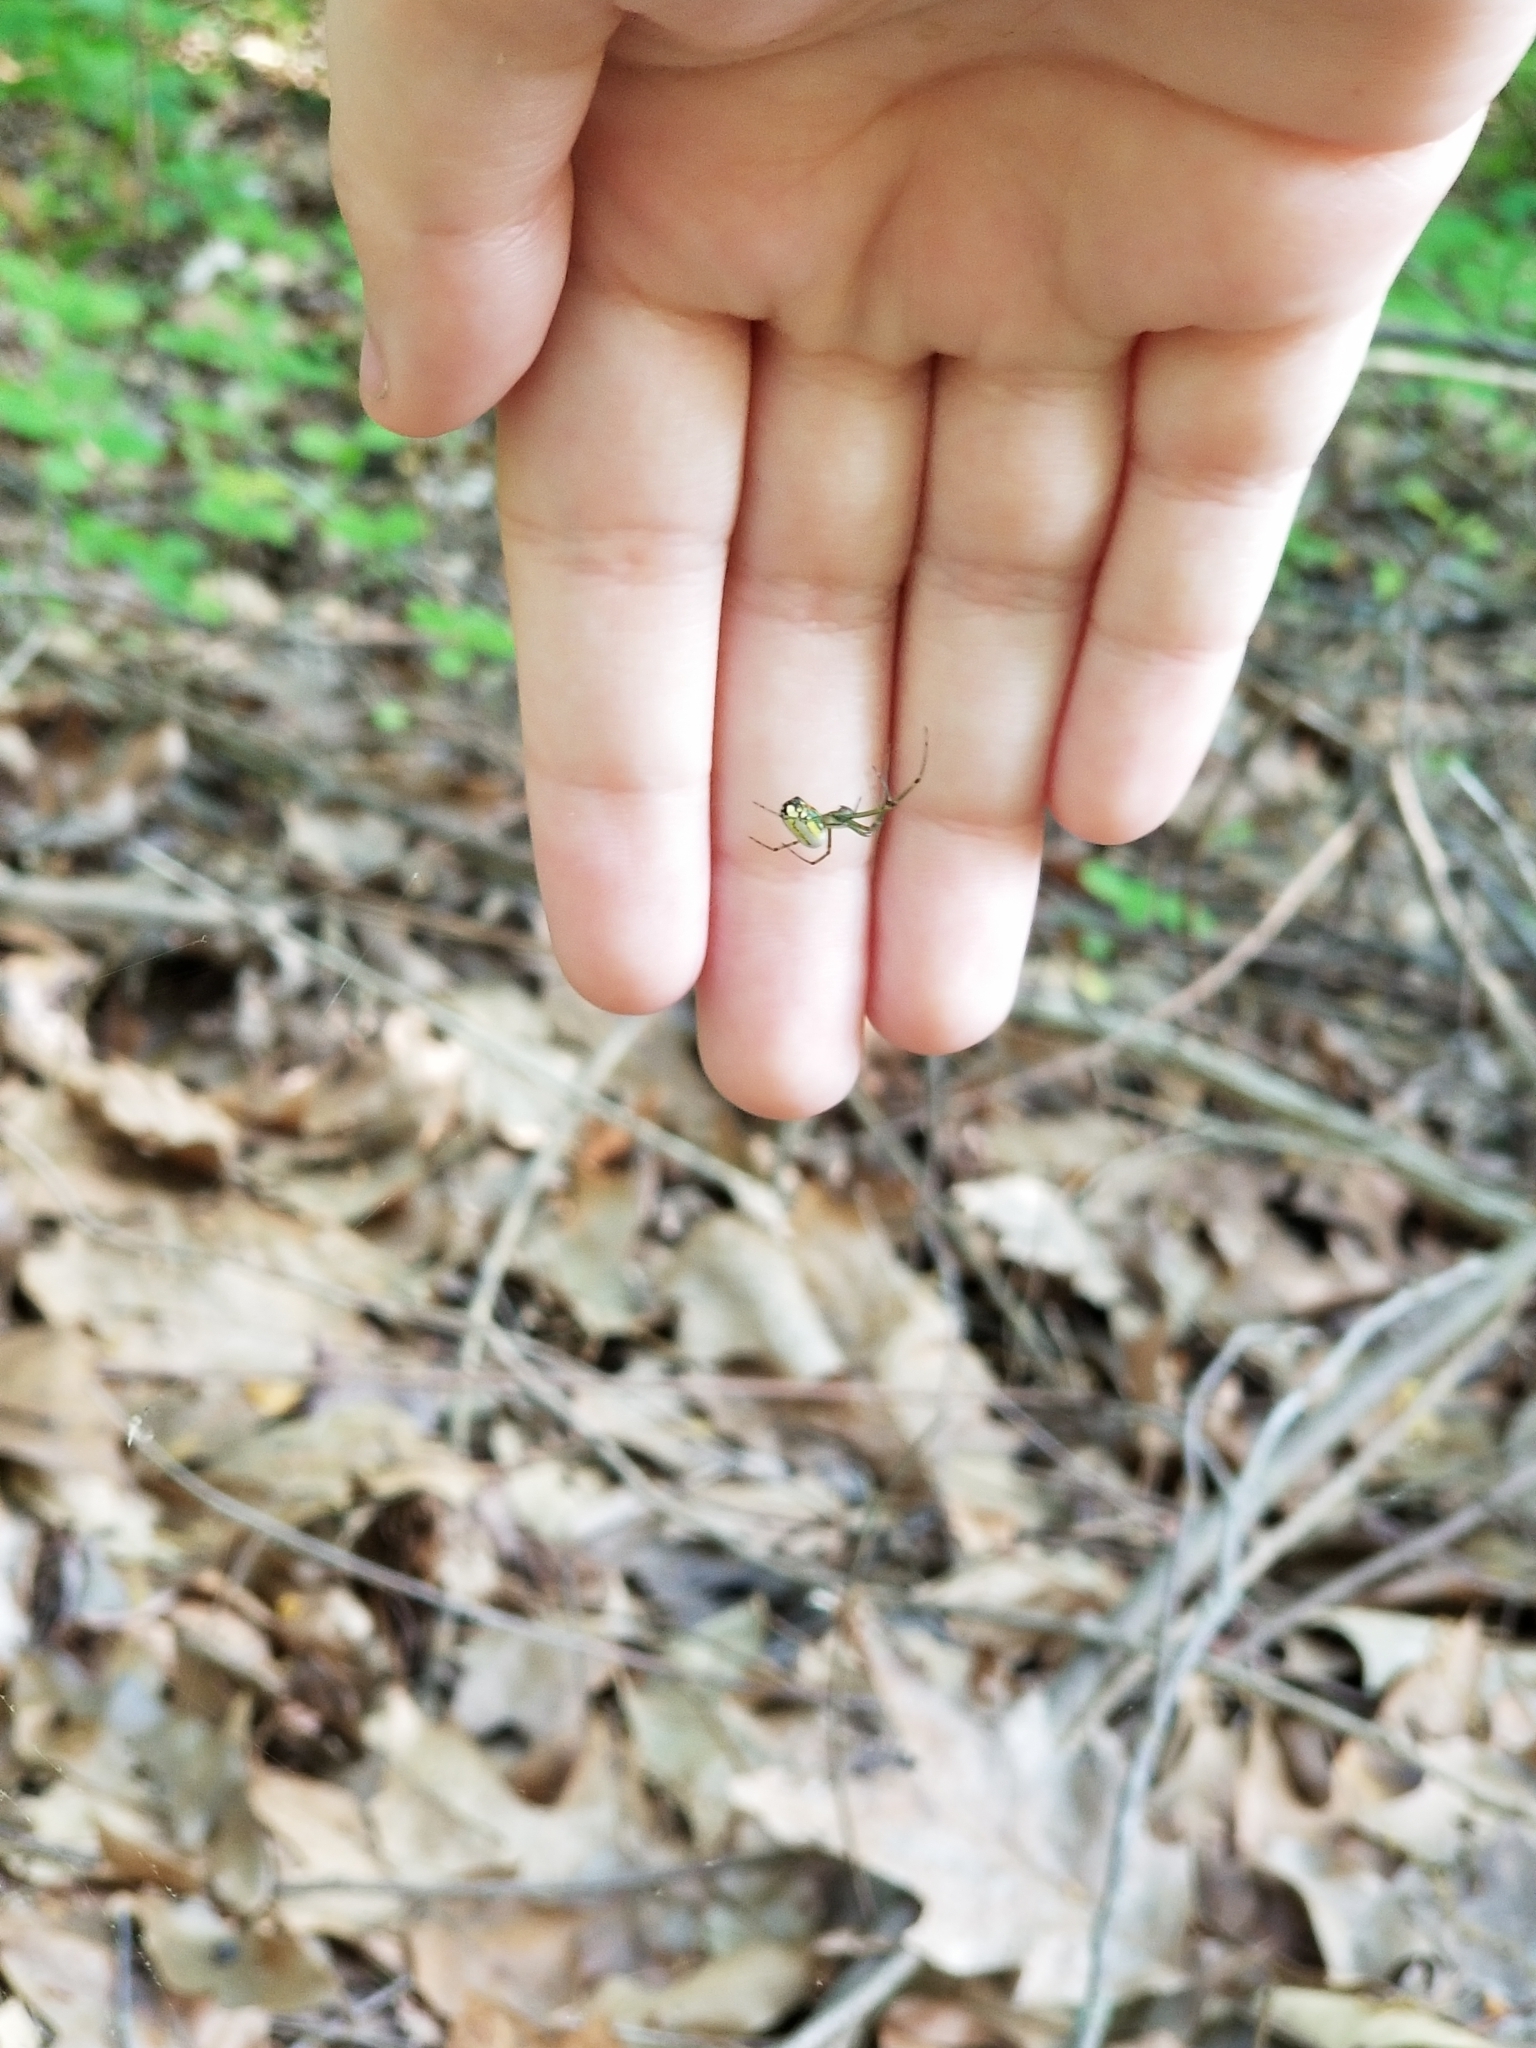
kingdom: Animalia
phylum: Arthropoda
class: Arachnida
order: Araneae
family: Tetragnathidae
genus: Leucauge
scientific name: Leucauge venusta
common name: Longjawed orb weavers
